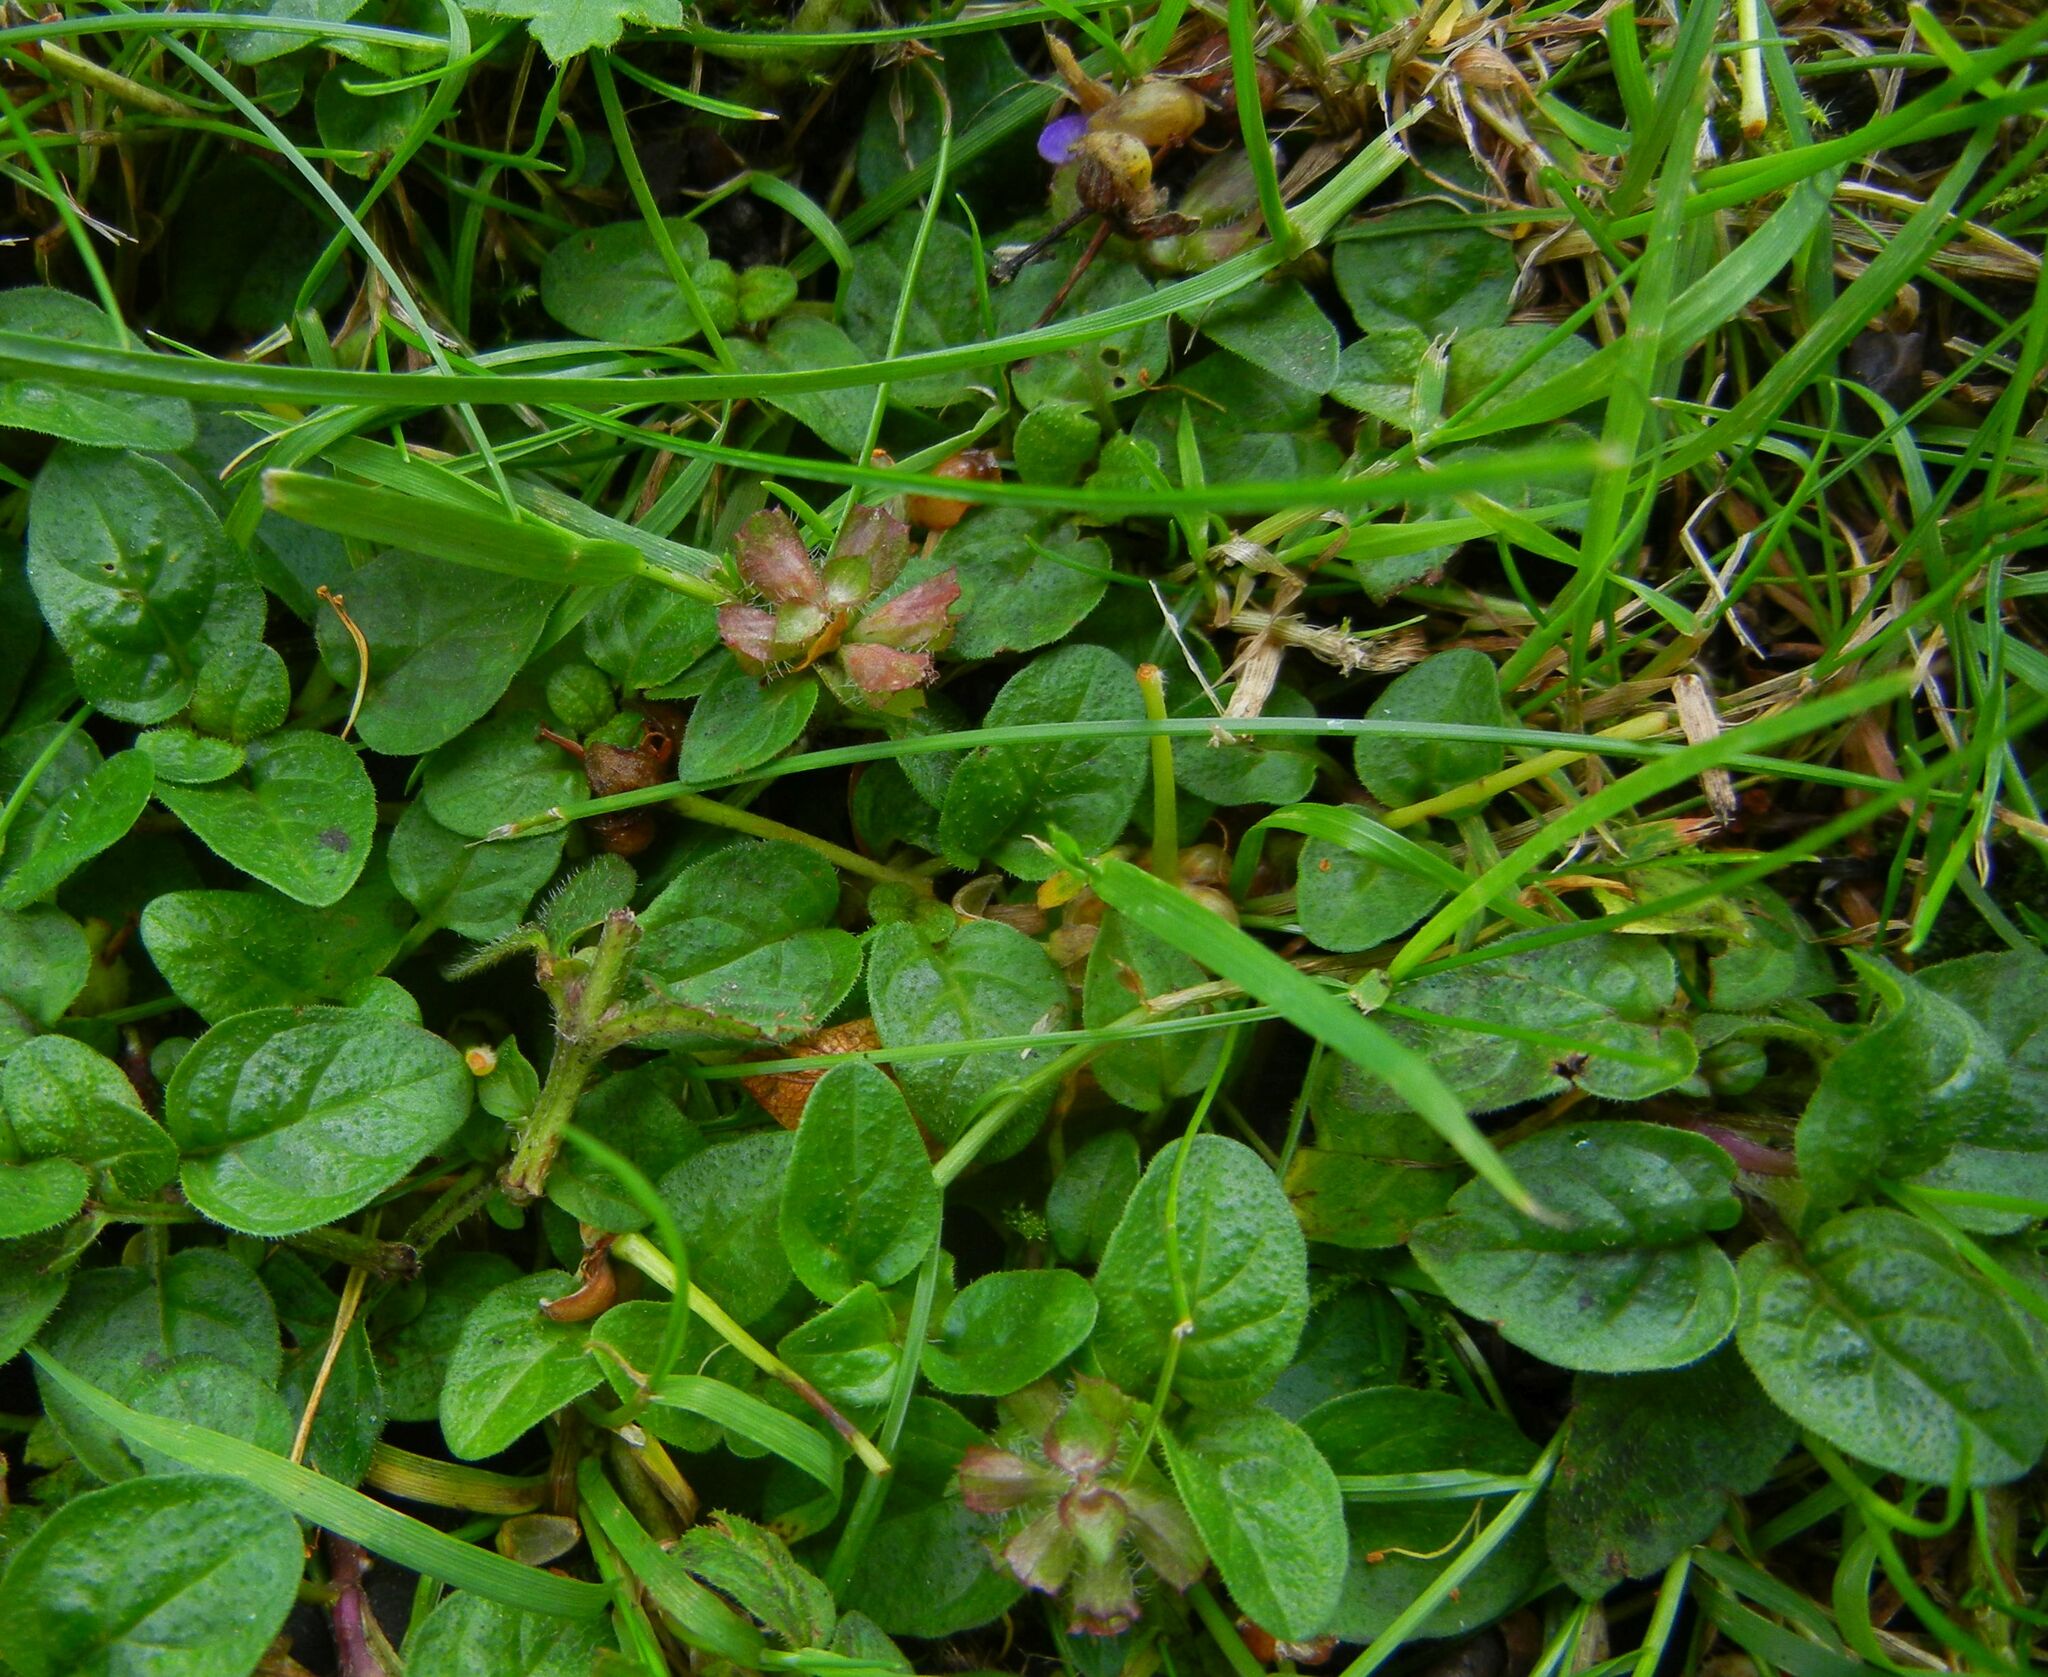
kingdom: Plantae
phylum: Tracheophyta
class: Magnoliopsida
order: Lamiales
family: Lamiaceae
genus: Prunella
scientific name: Prunella vulgaris
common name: Heal-all
